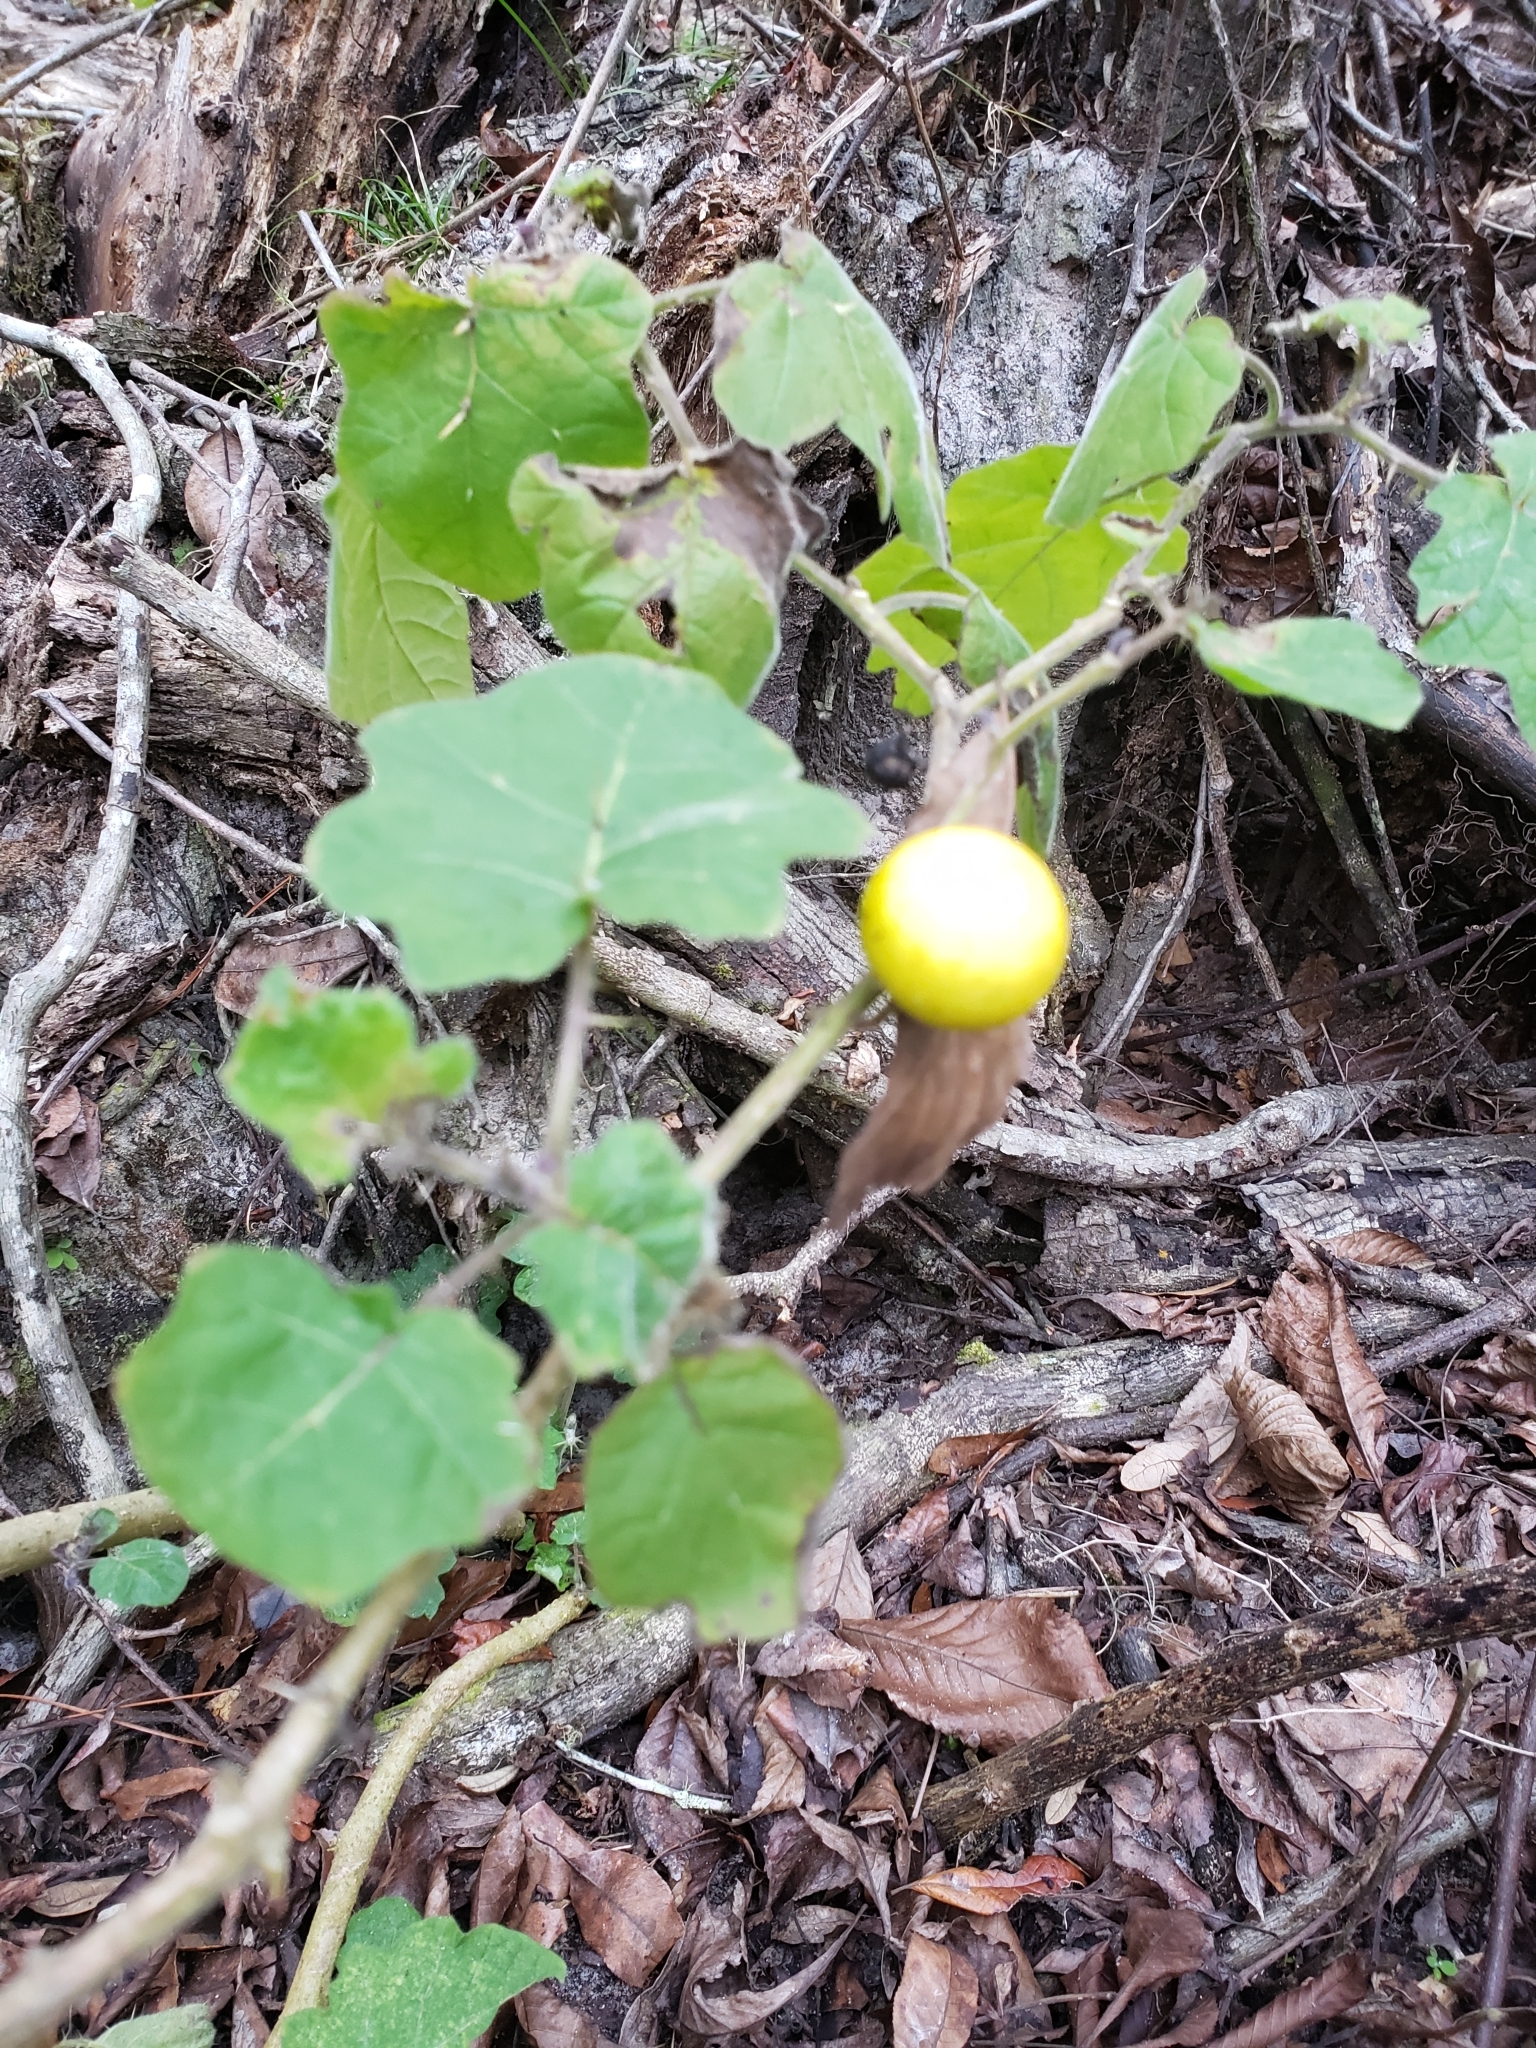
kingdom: Plantae
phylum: Tracheophyta
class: Magnoliopsida
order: Solanales
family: Solanaceae
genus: Solanum
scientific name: Solanum viarum
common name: Tropical soda apple
